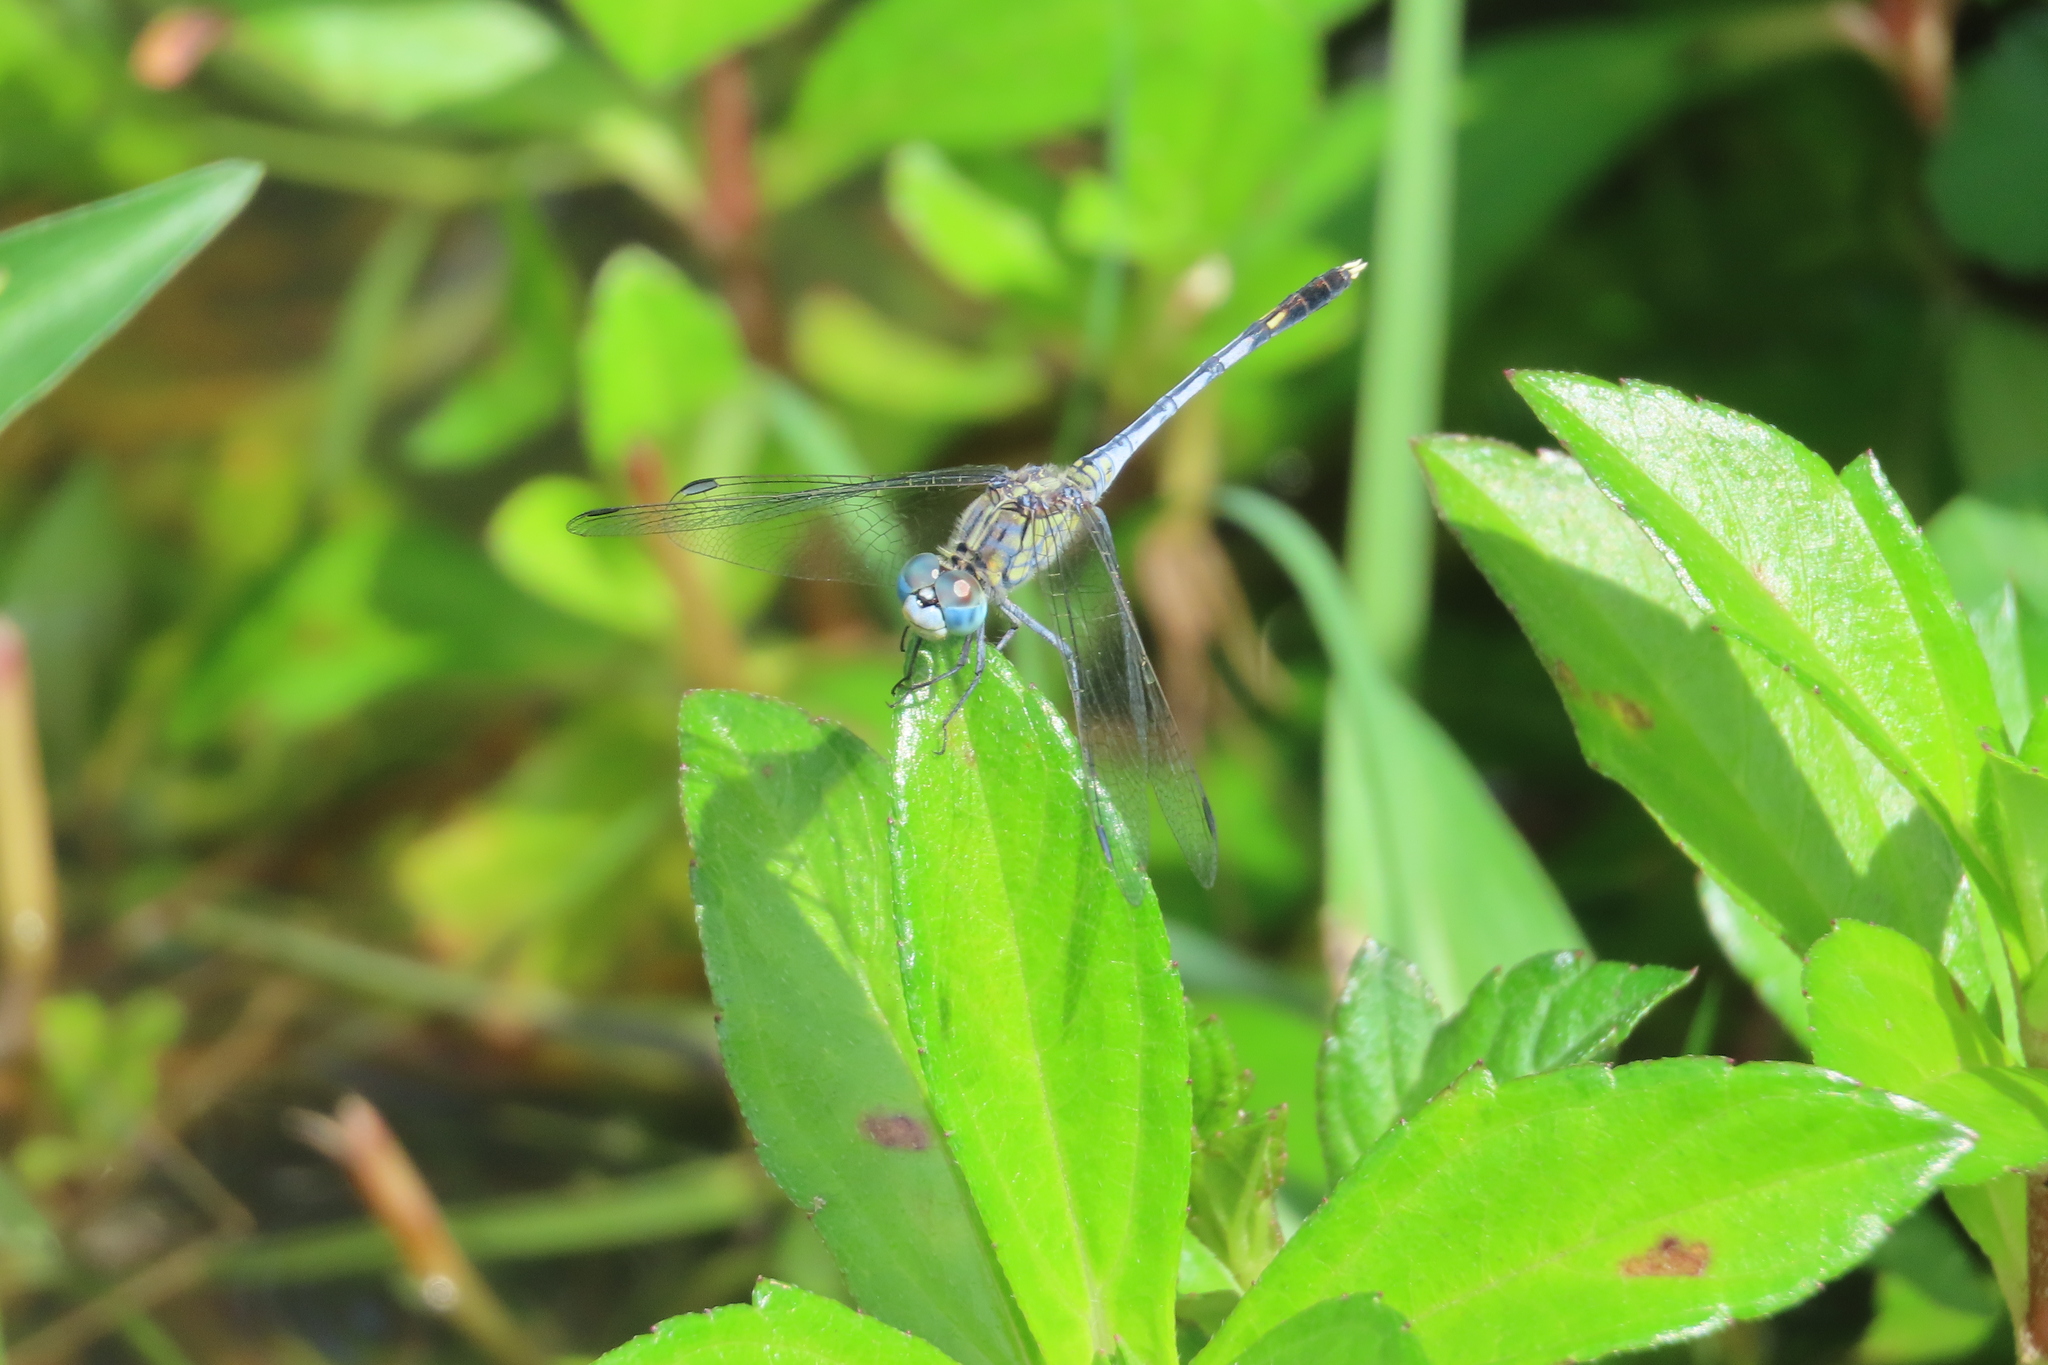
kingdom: Animalia
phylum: Arthropoda
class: Insecta
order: Odonata
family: Libellulidae
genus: Diplacodes
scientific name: Diplacodes trivialis
